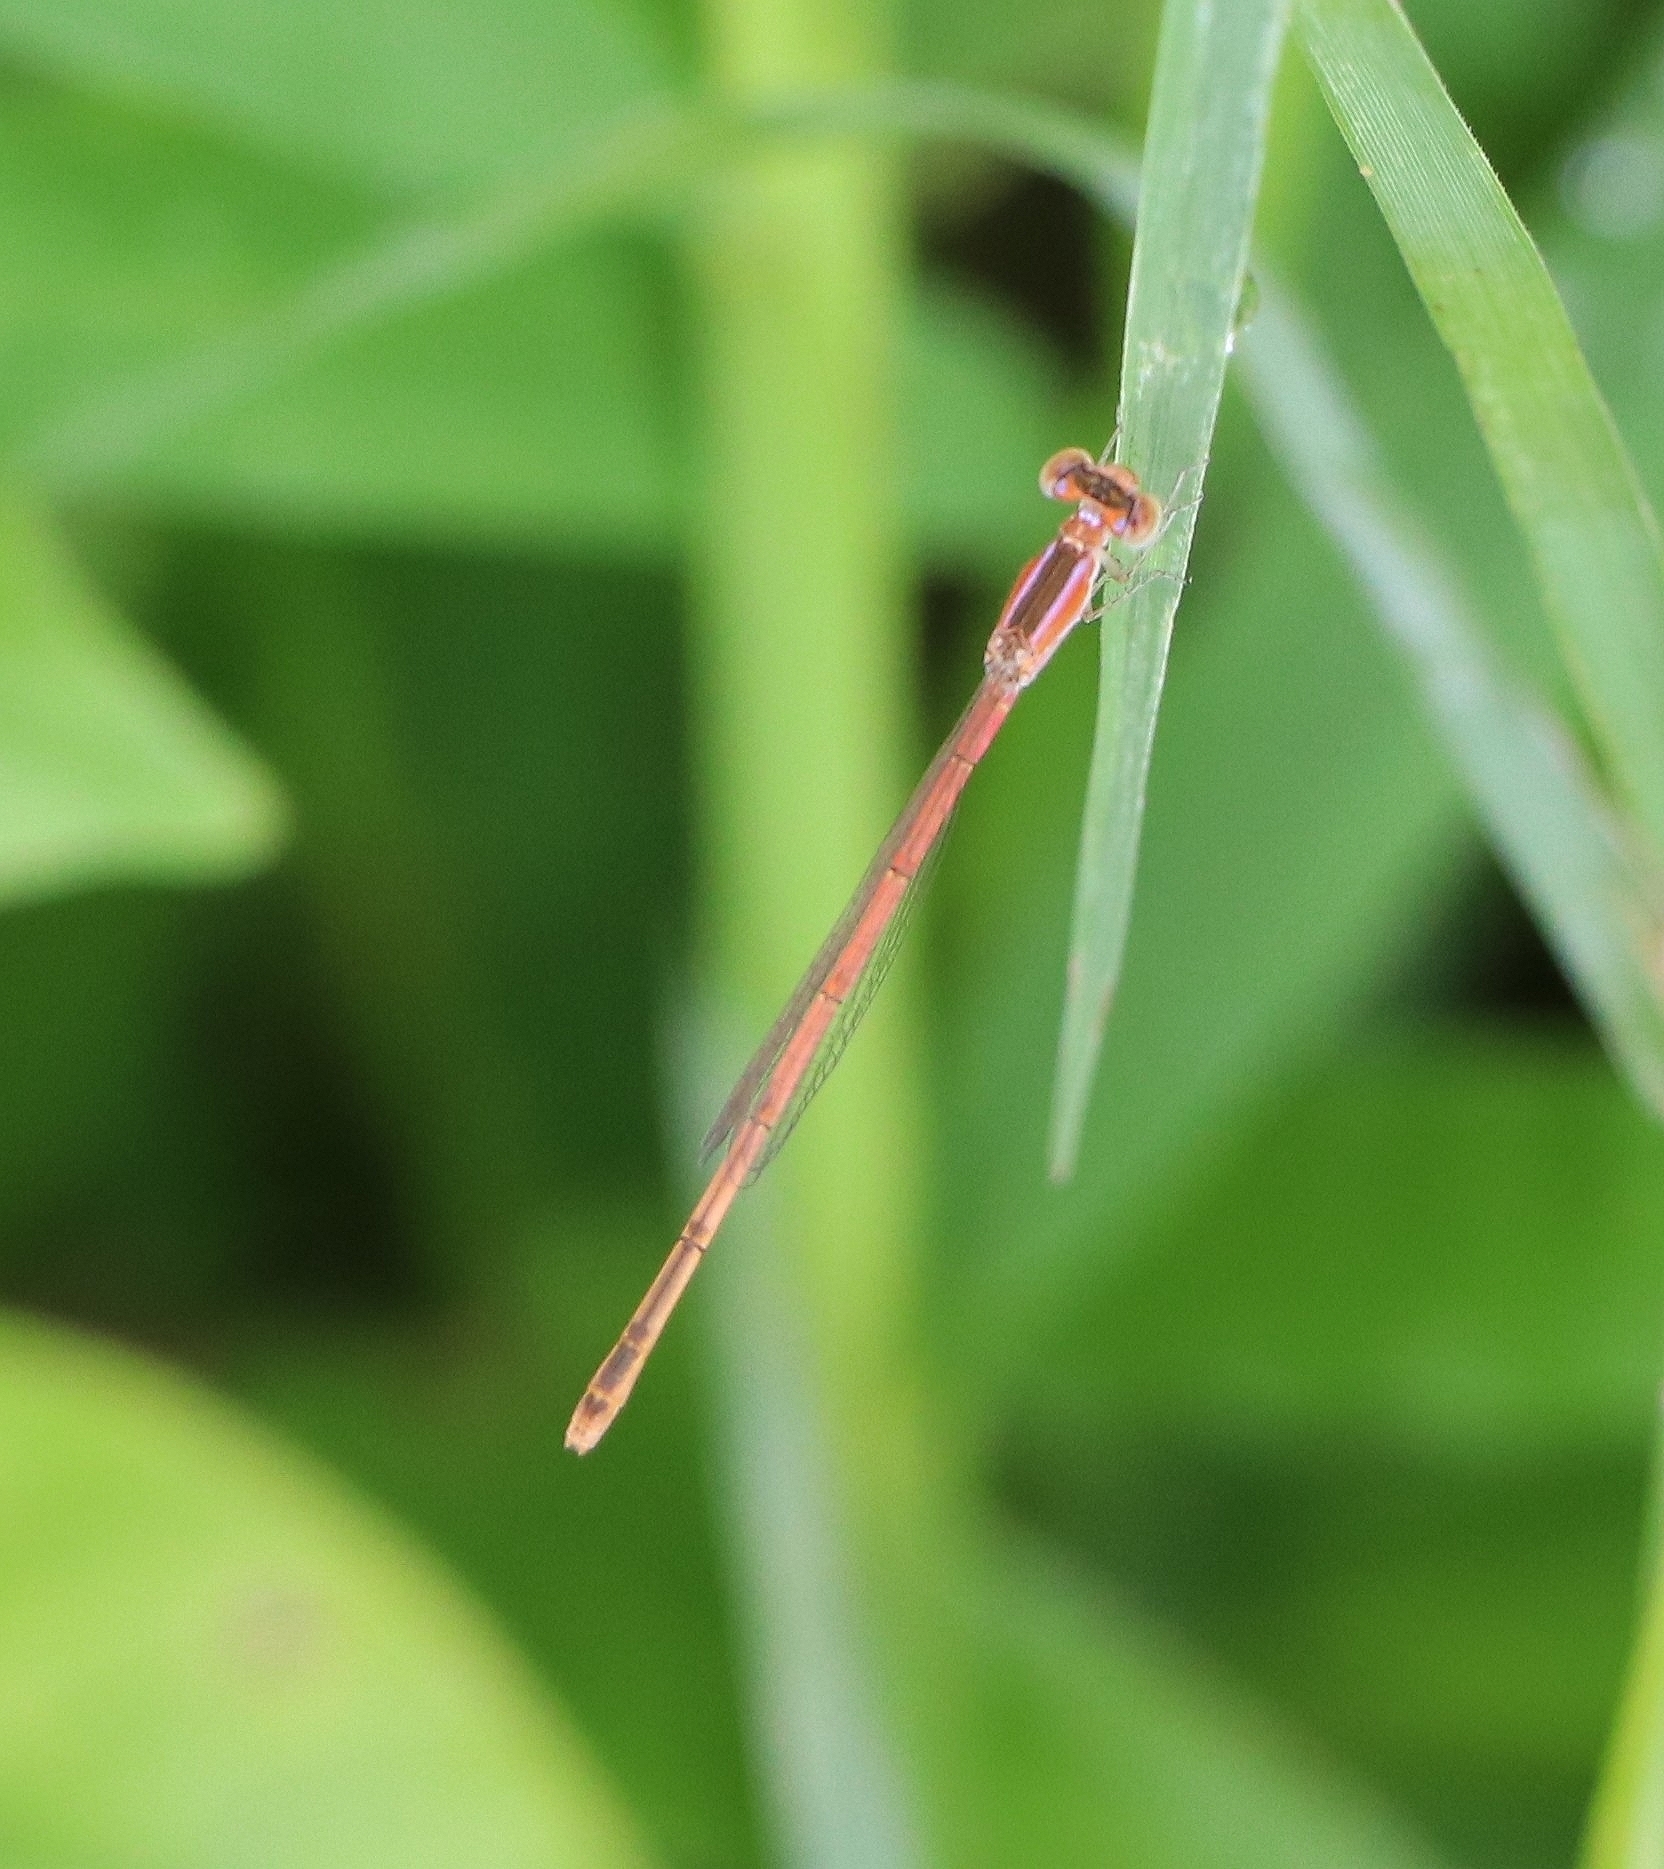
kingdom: Animalia
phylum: Arthropoda
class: Insecta
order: Odonata
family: Coenagrionidae
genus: Agriocnemis
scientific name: Agriocnemis pygmaea
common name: Pygmy wisp
